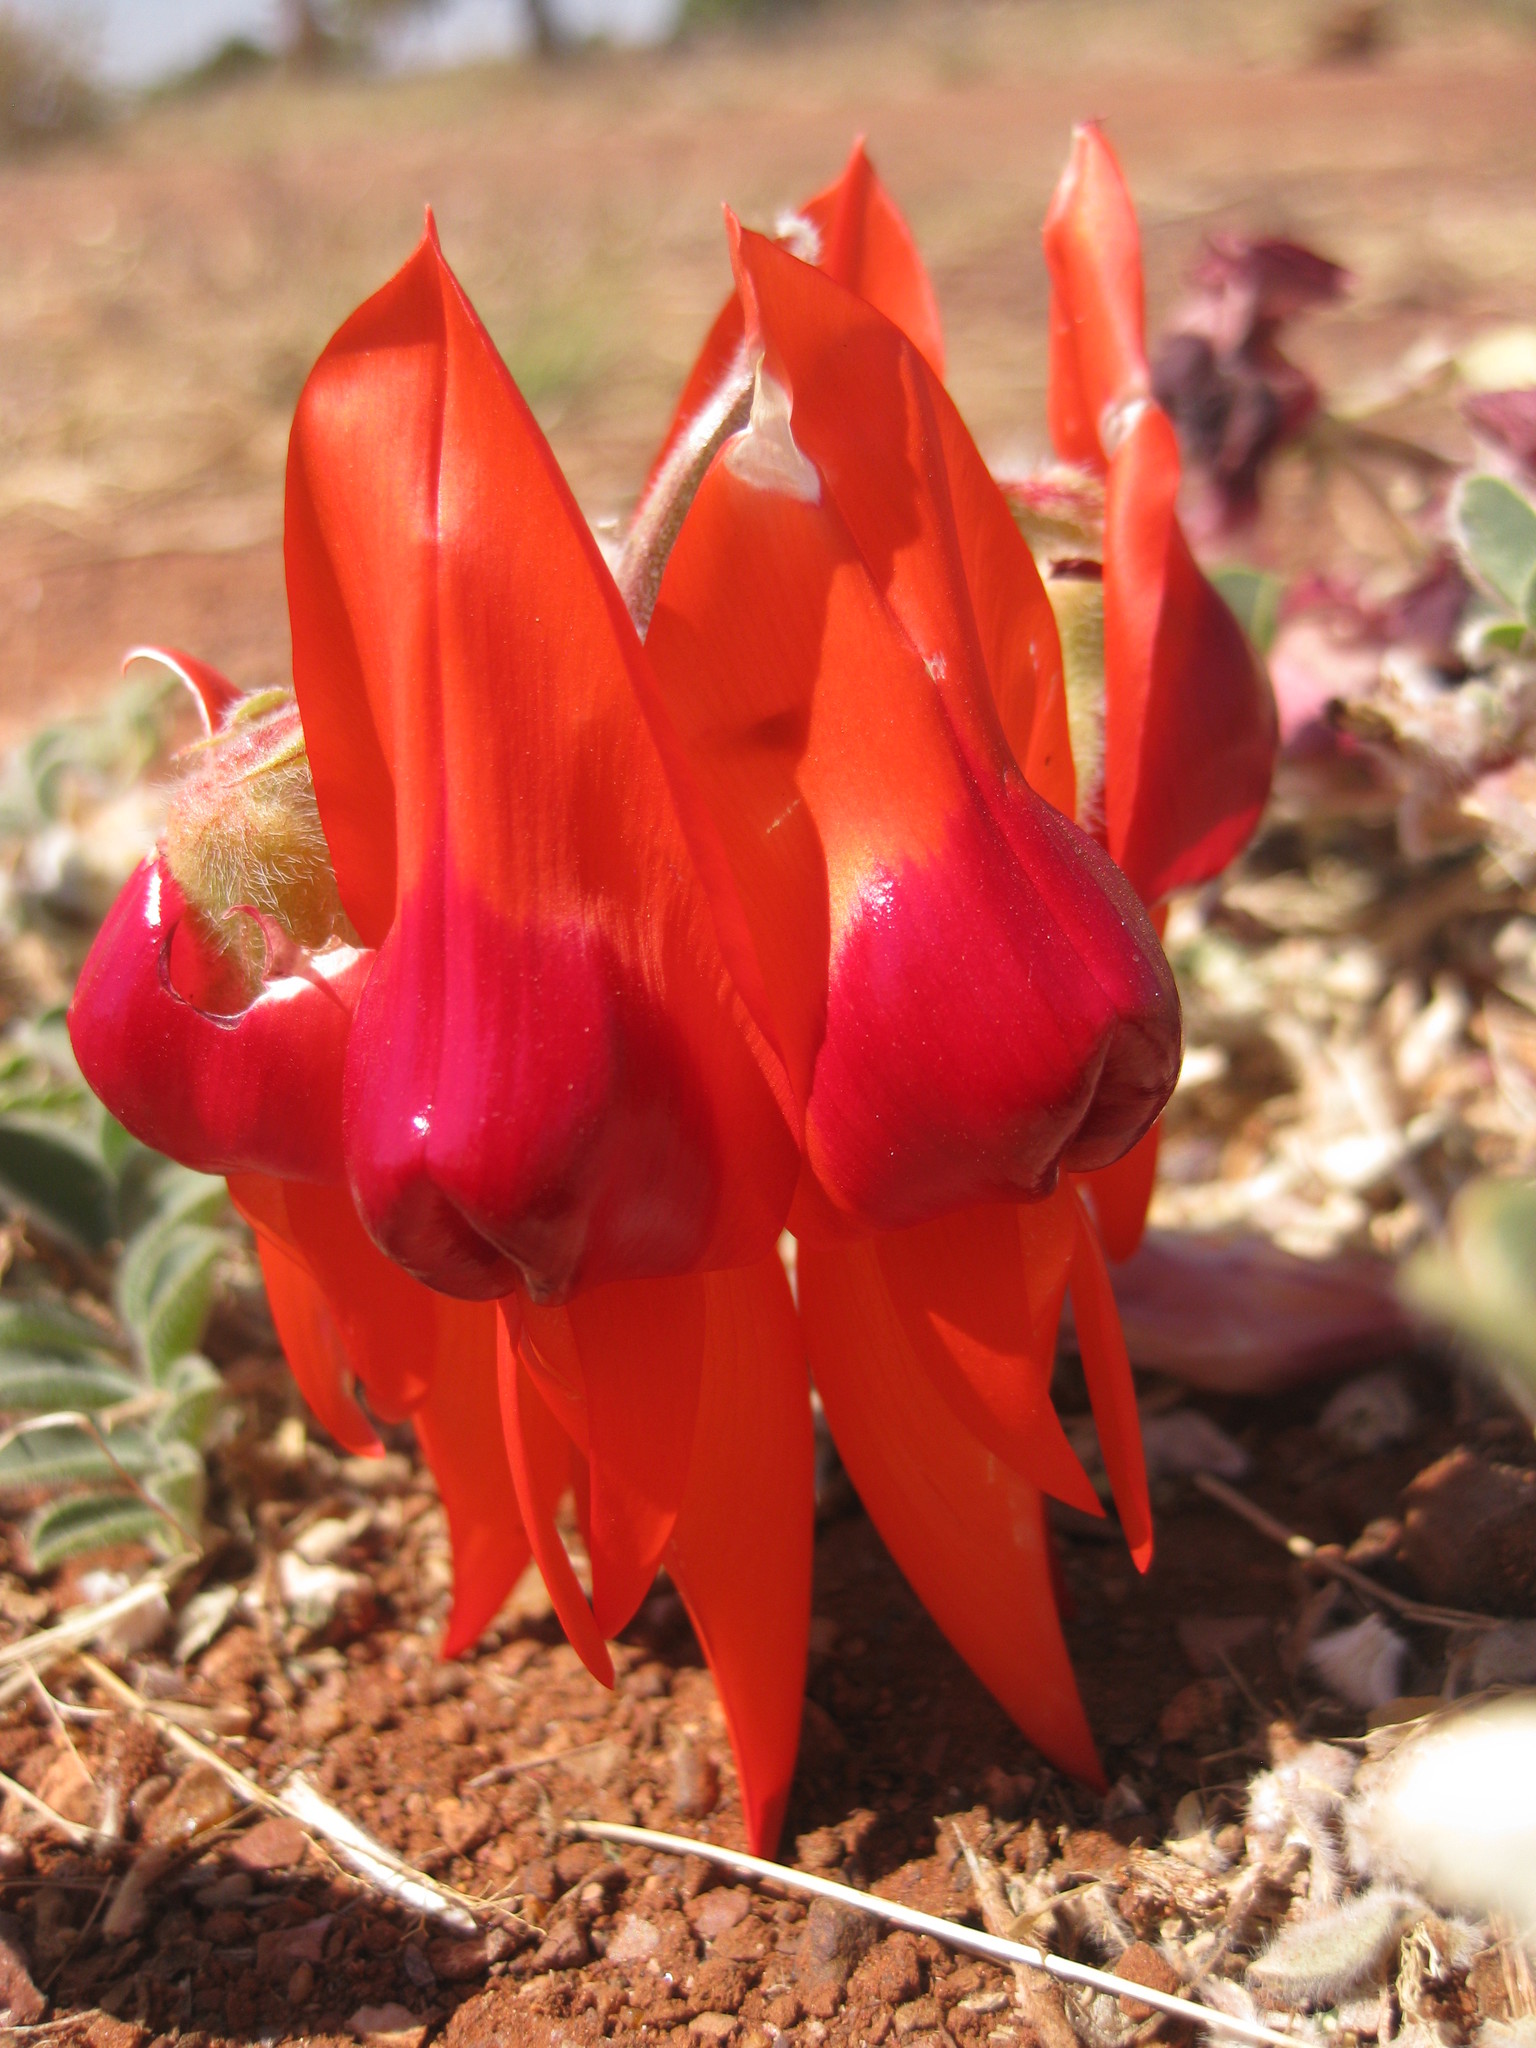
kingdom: Plantae
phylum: Tracheophyta
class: Magnoliopsida
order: Fabales
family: Fabaceae
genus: Swainsona
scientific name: Swainsona formosa
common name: Sturt's desert-pea
